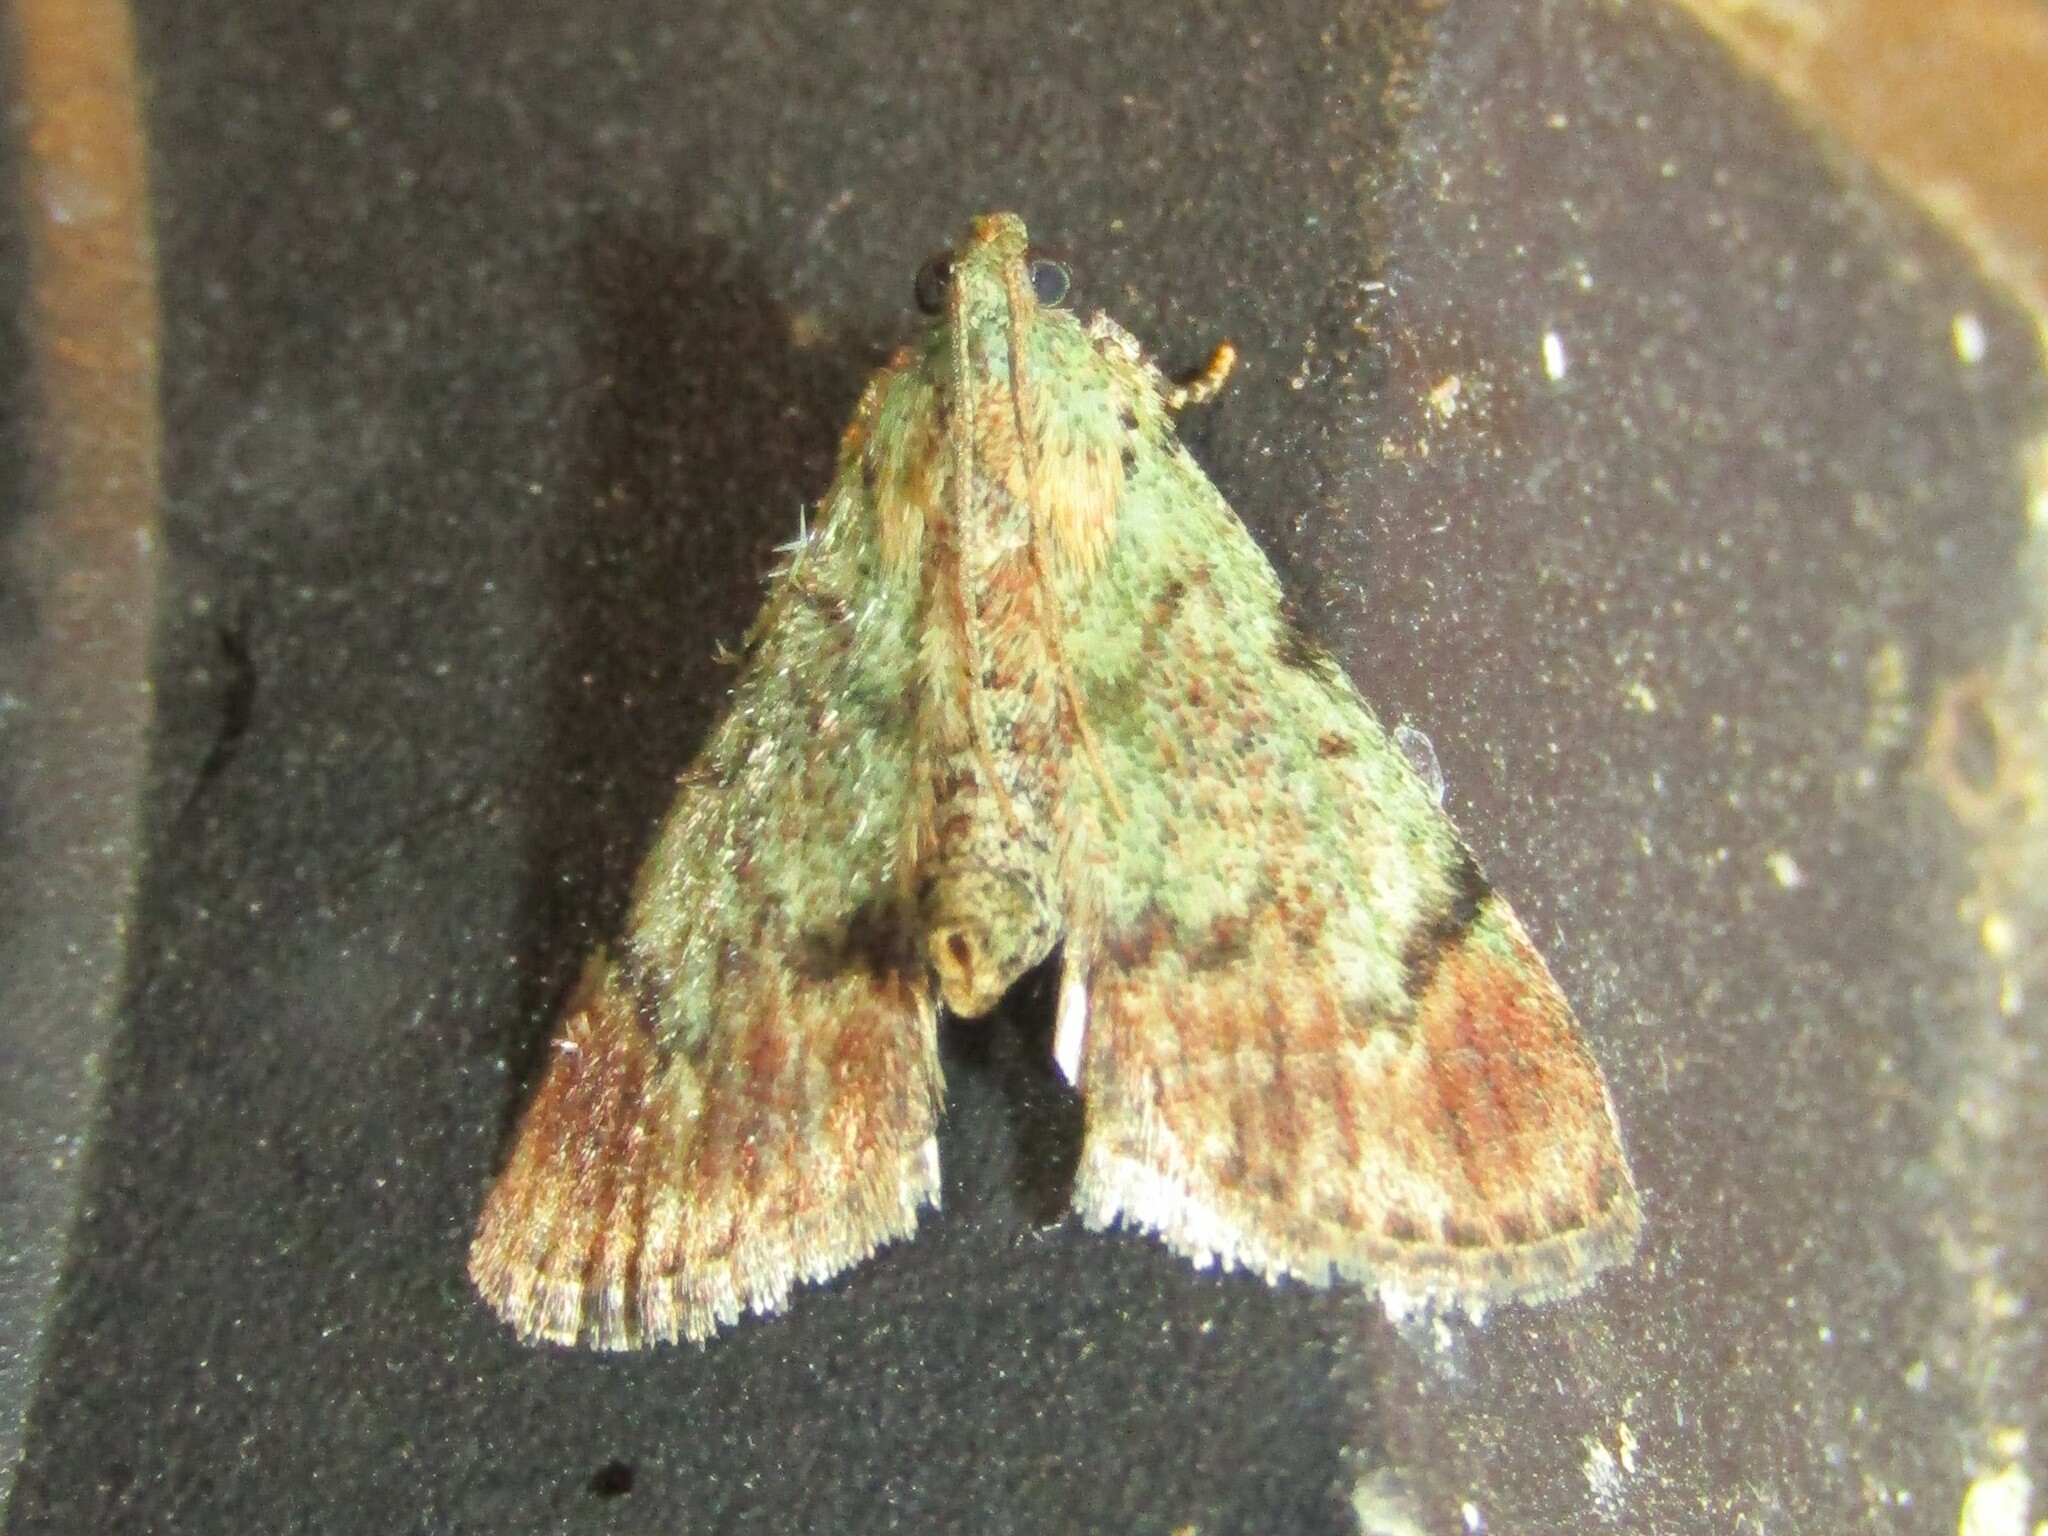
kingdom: Animalia
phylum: Arthropoda
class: Insecta
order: Lepidoptera
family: Pyralidae
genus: Epipaschia
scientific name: Epipaschia superatalis
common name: Dimorphic macalla moth
